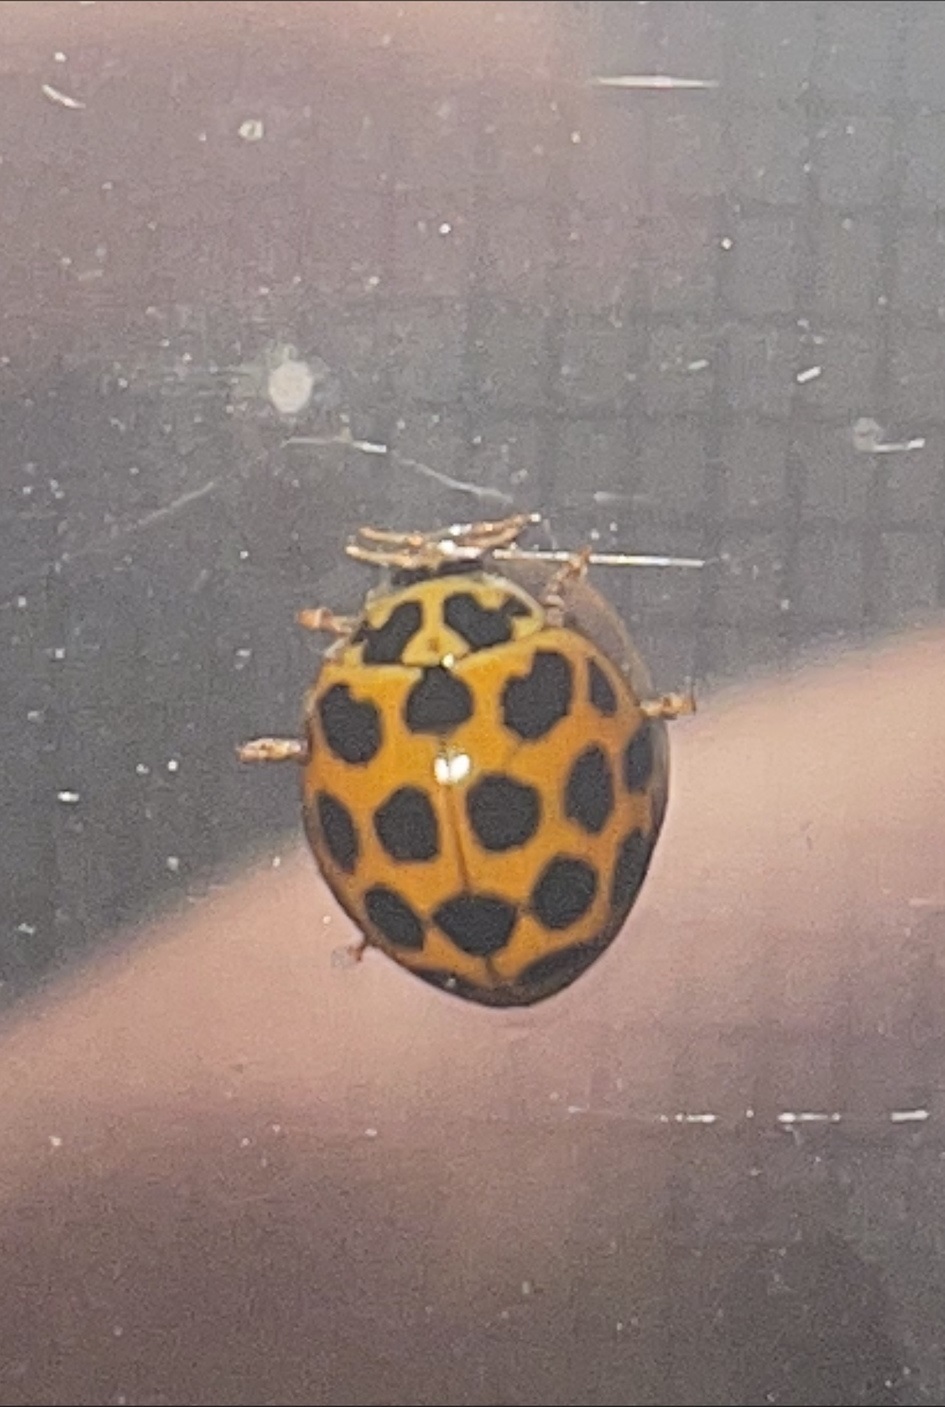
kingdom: Animalia
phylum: Arthropoda
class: Insecta
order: Coleoptera
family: Coccinellidae
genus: Harmonia
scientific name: Harmonia conformis
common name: Common spotted ladybird beetle
